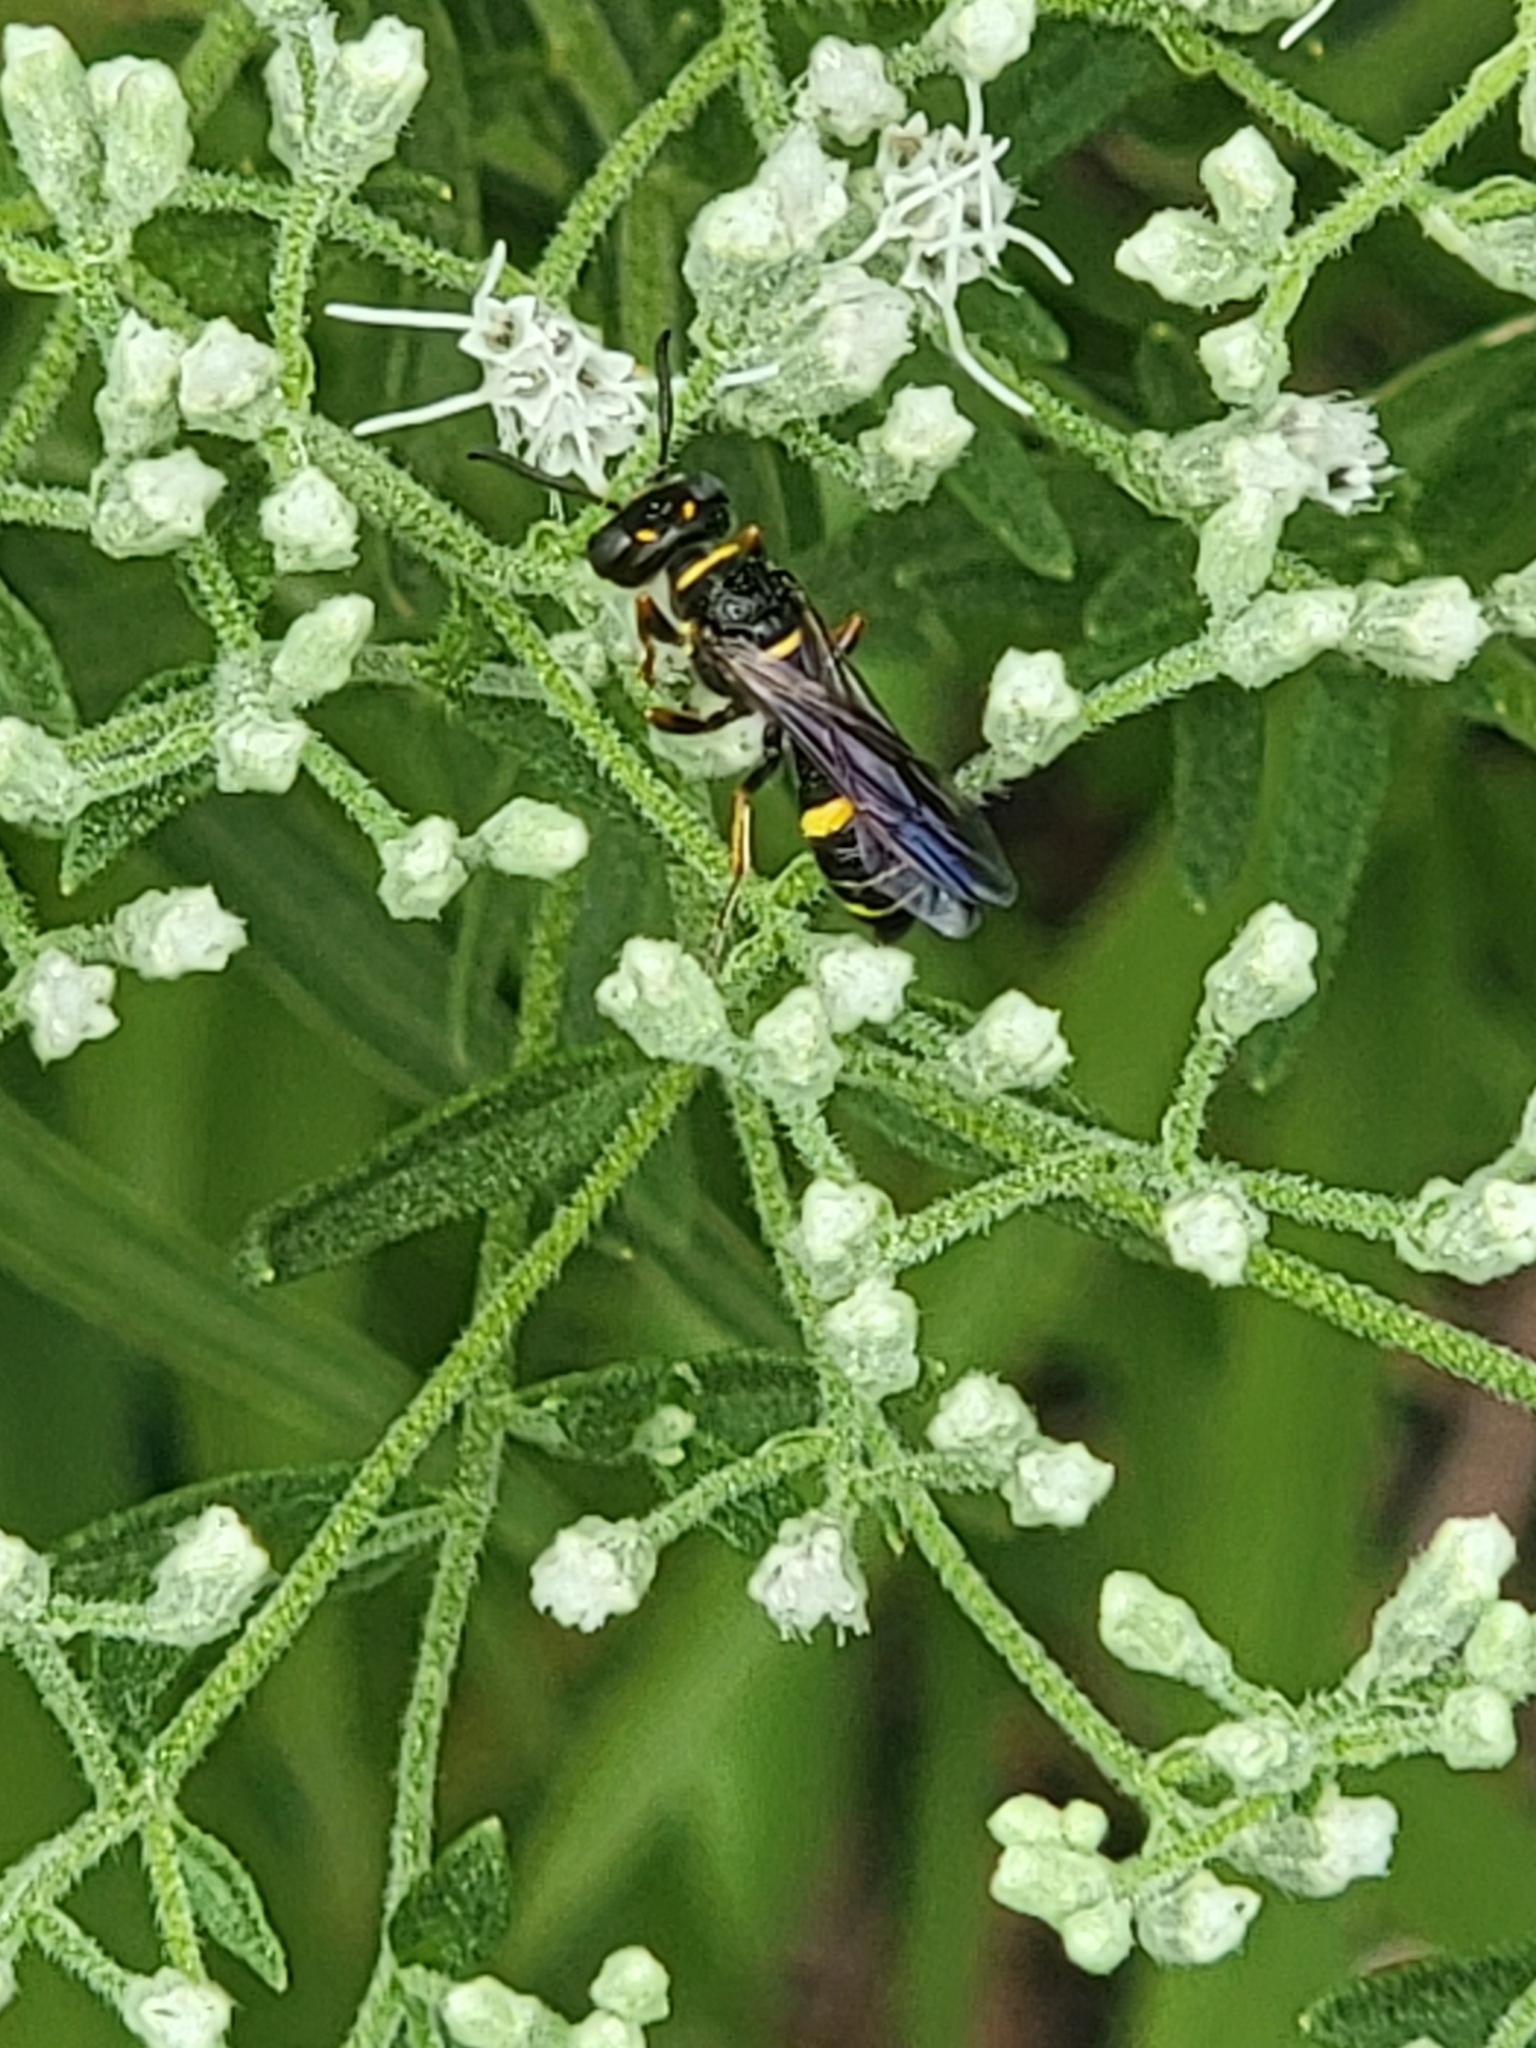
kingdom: Animalia
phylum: Arthropoda
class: Insecta
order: Hymenoptera
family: Crabronidae
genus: Philanthus
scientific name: Philanthus gibbosus
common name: Humped beewolf
